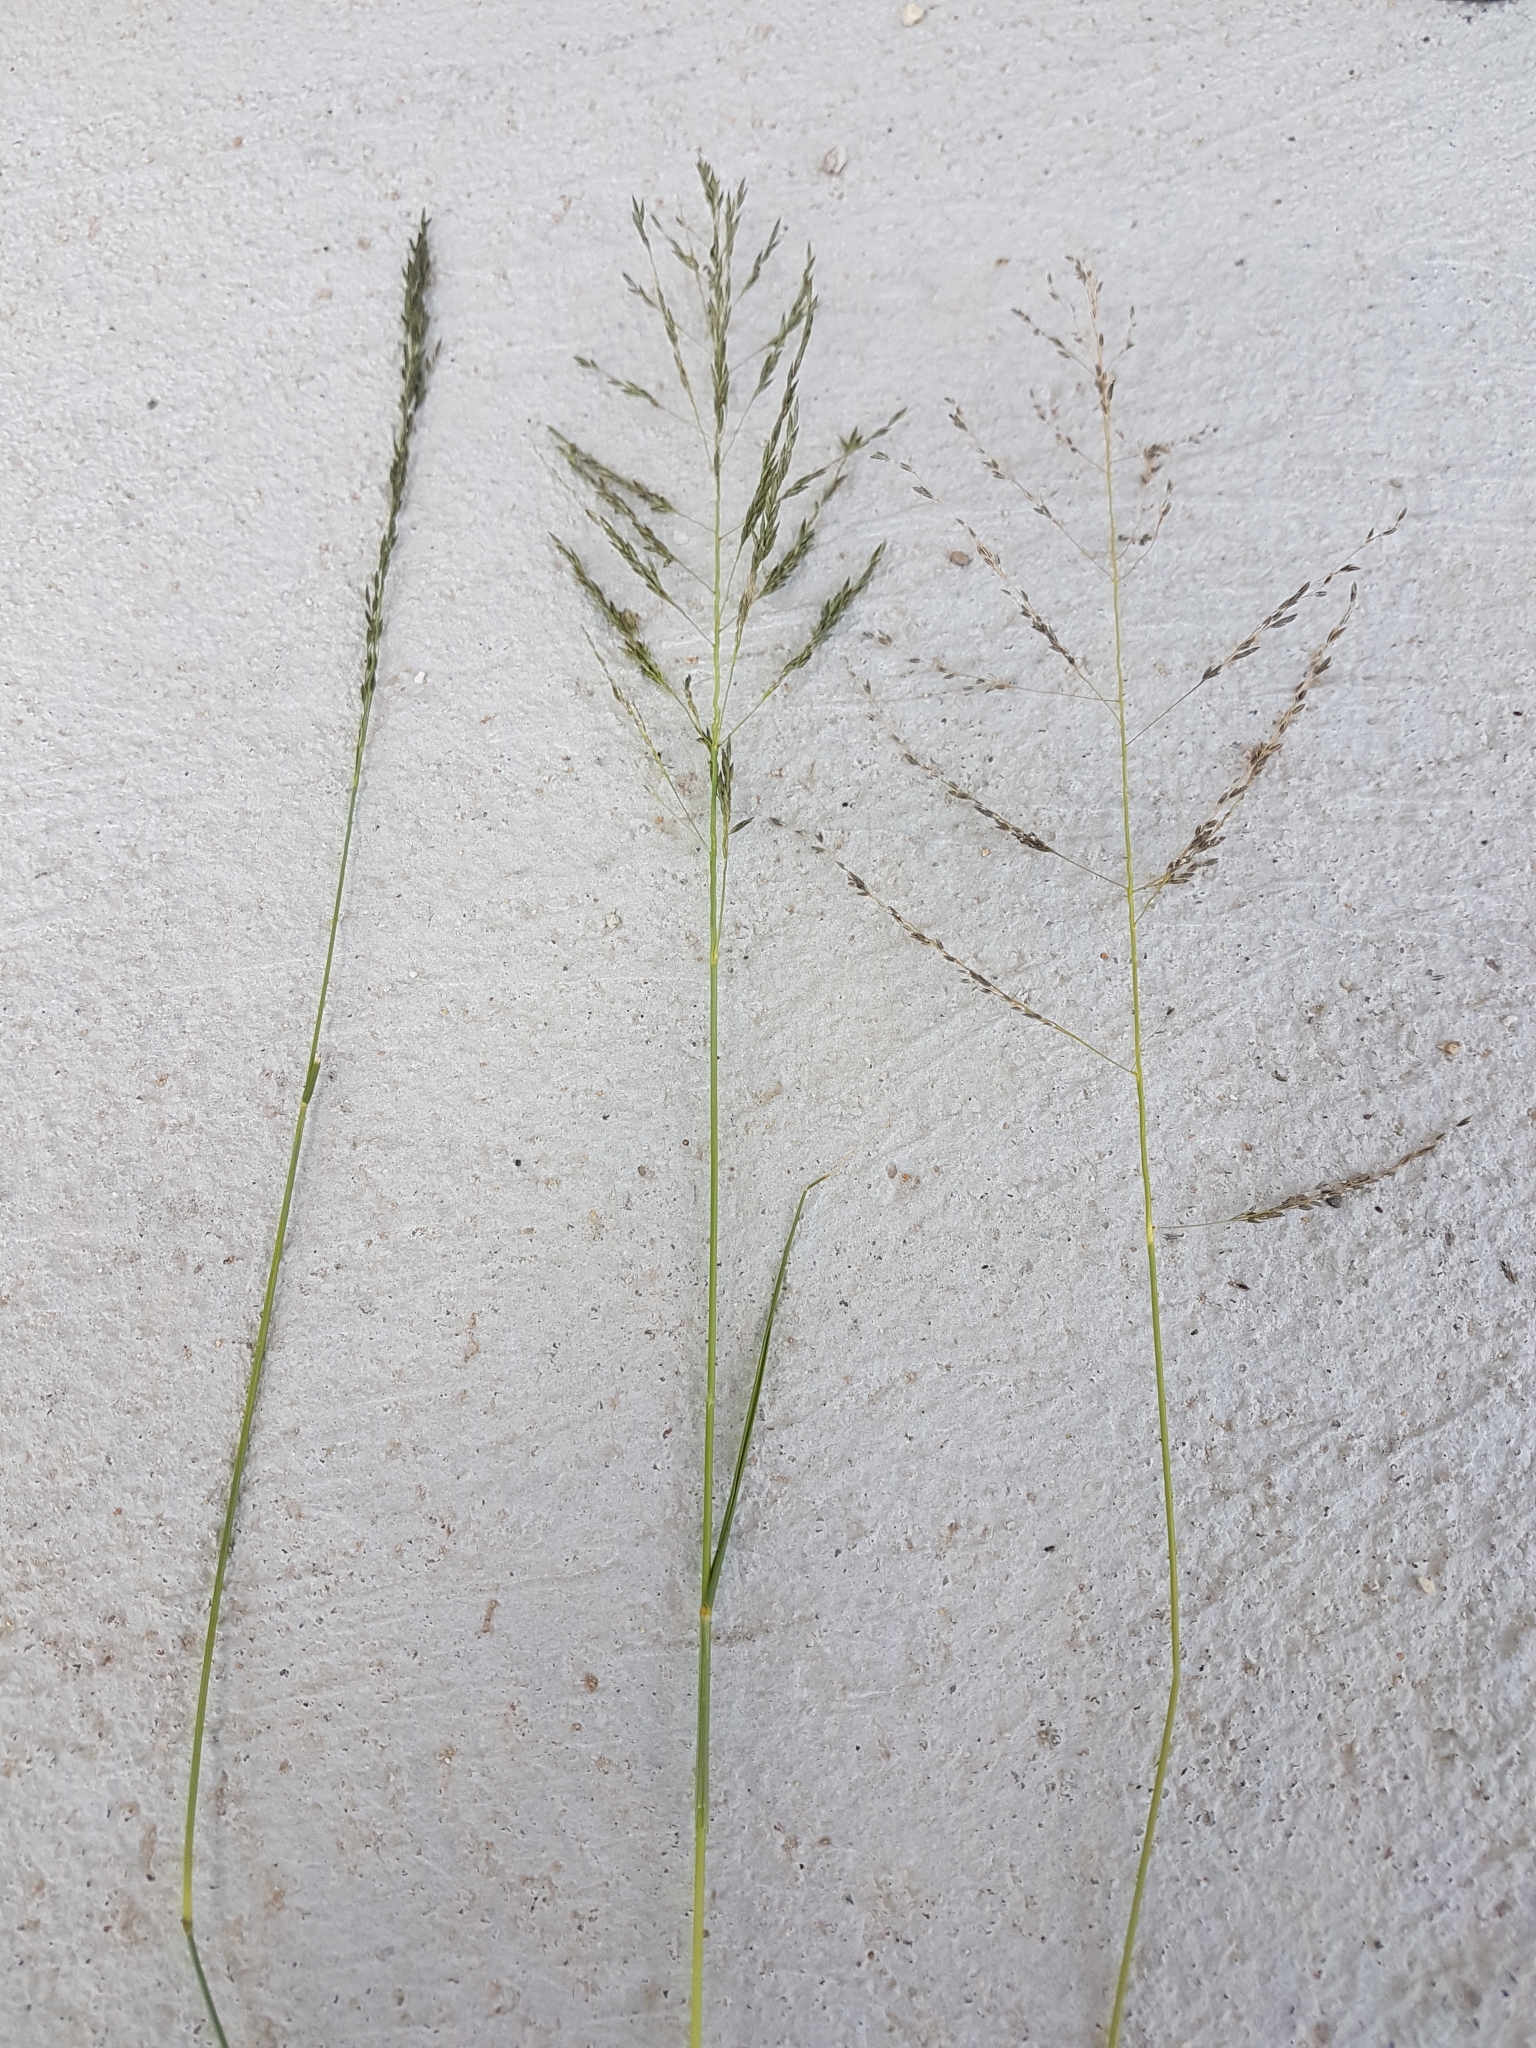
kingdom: Plantae
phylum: Tracheophyta
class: Liliopsida
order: Poales
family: Poaceae
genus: Eragrostis
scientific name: Eragrostis curvula
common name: African love-grass
